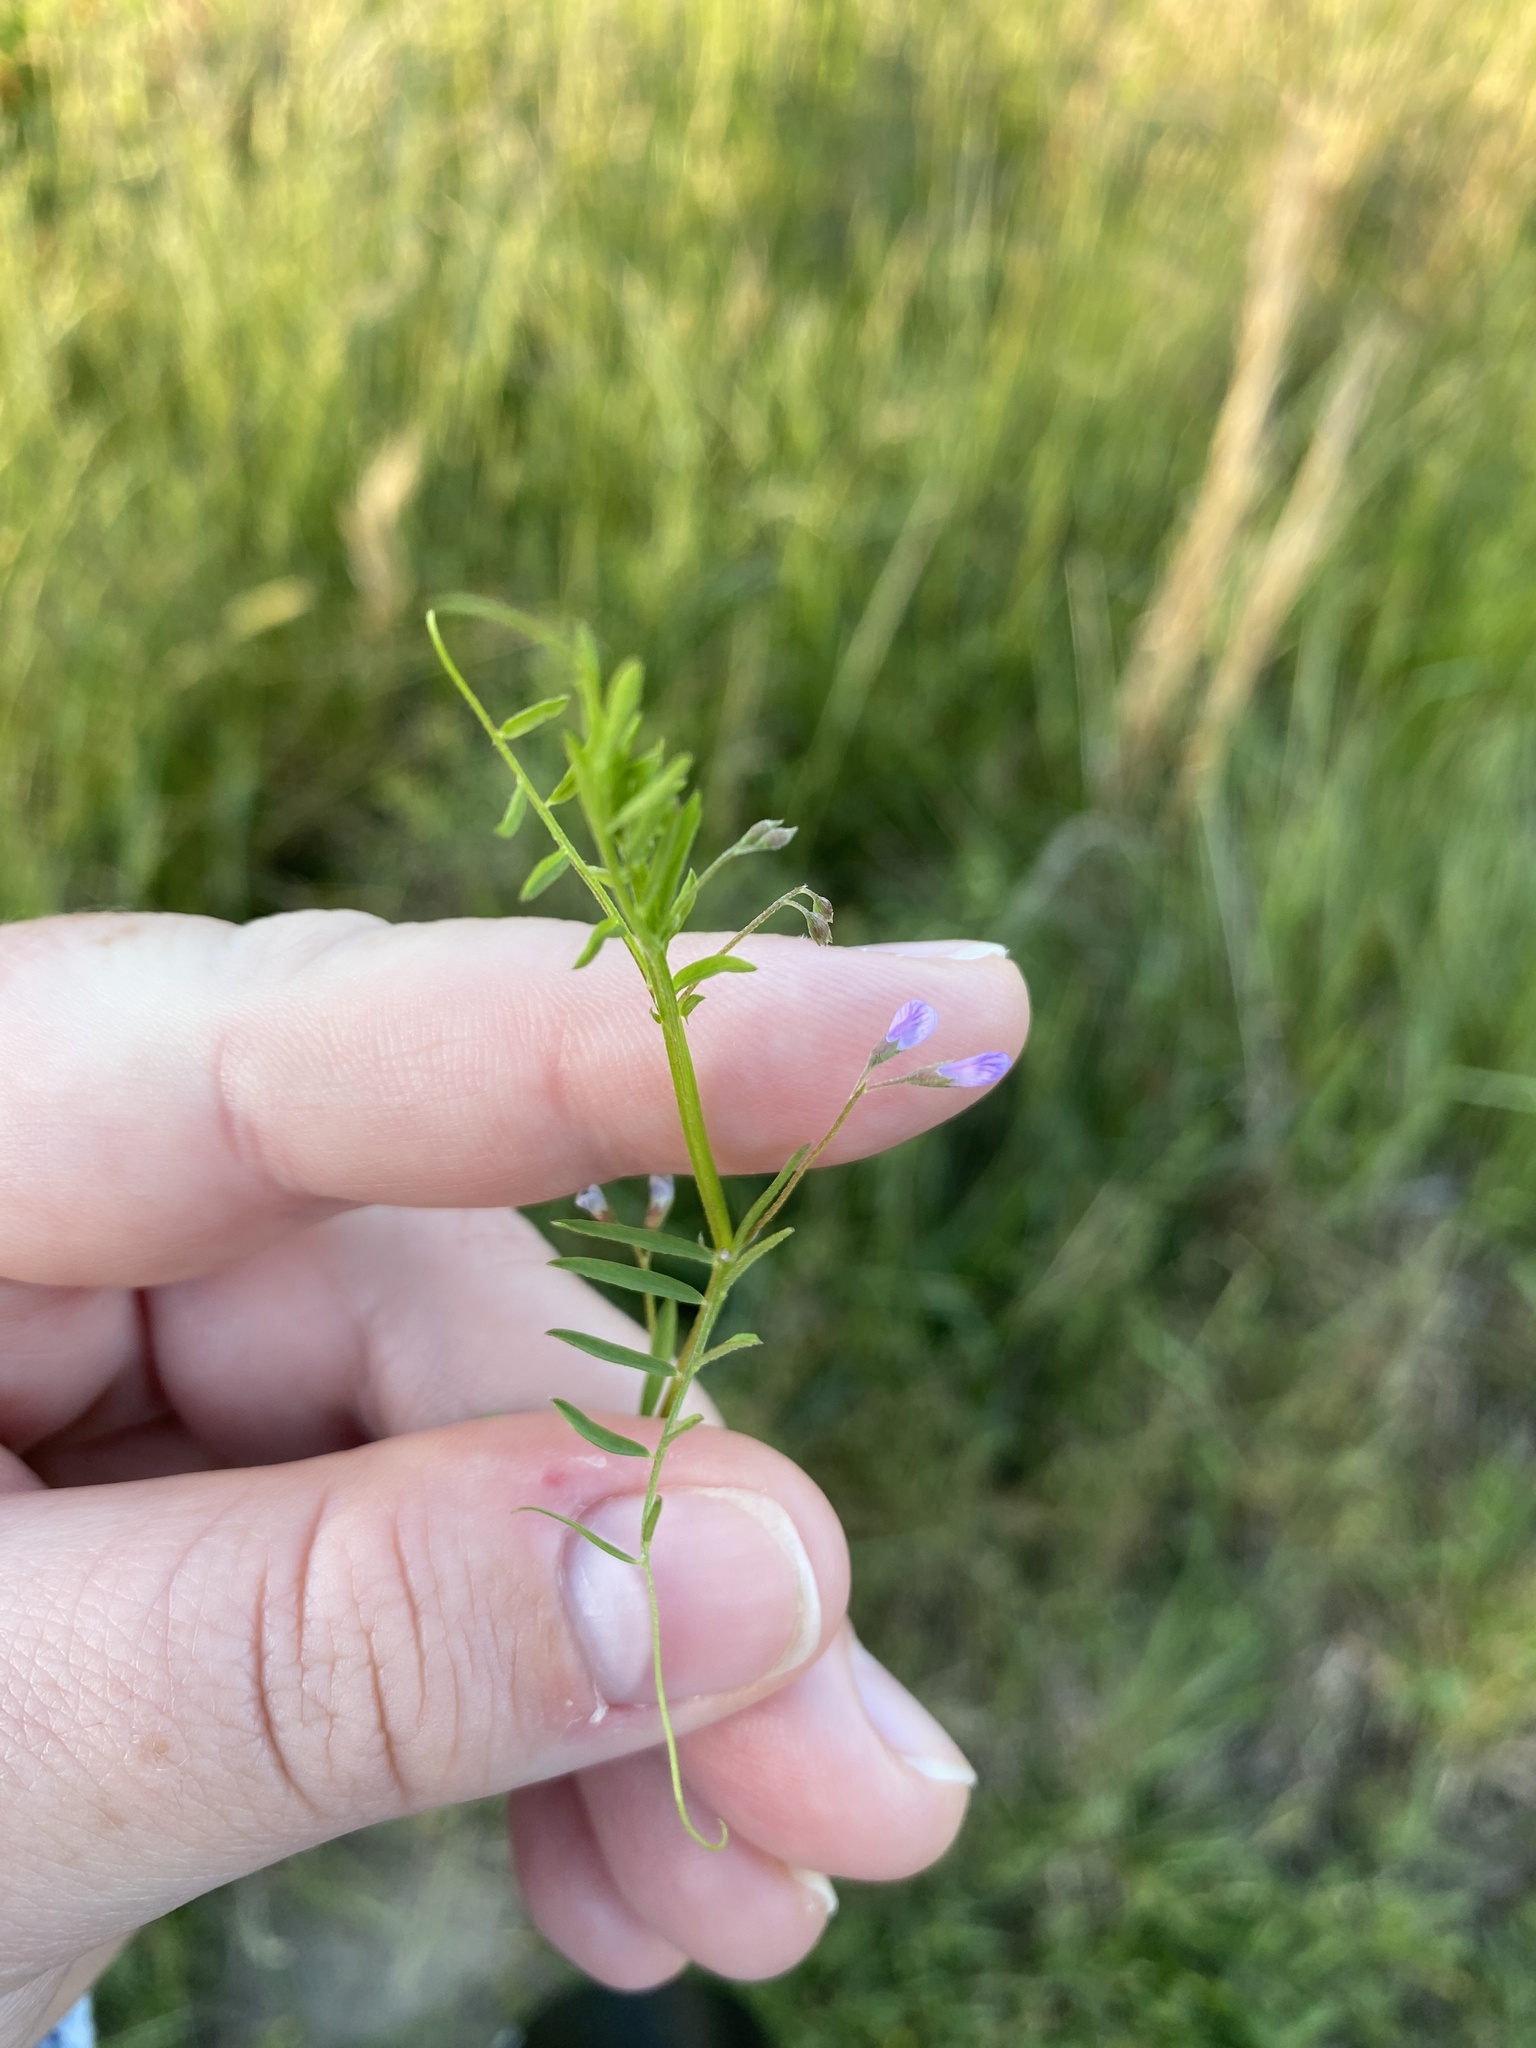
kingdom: Plantae
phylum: Tracheophyta
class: Magnoliopsida
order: Fabales
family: Fabaceae
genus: Vicia
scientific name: Vicia tetrasperma
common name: Smooth tare
